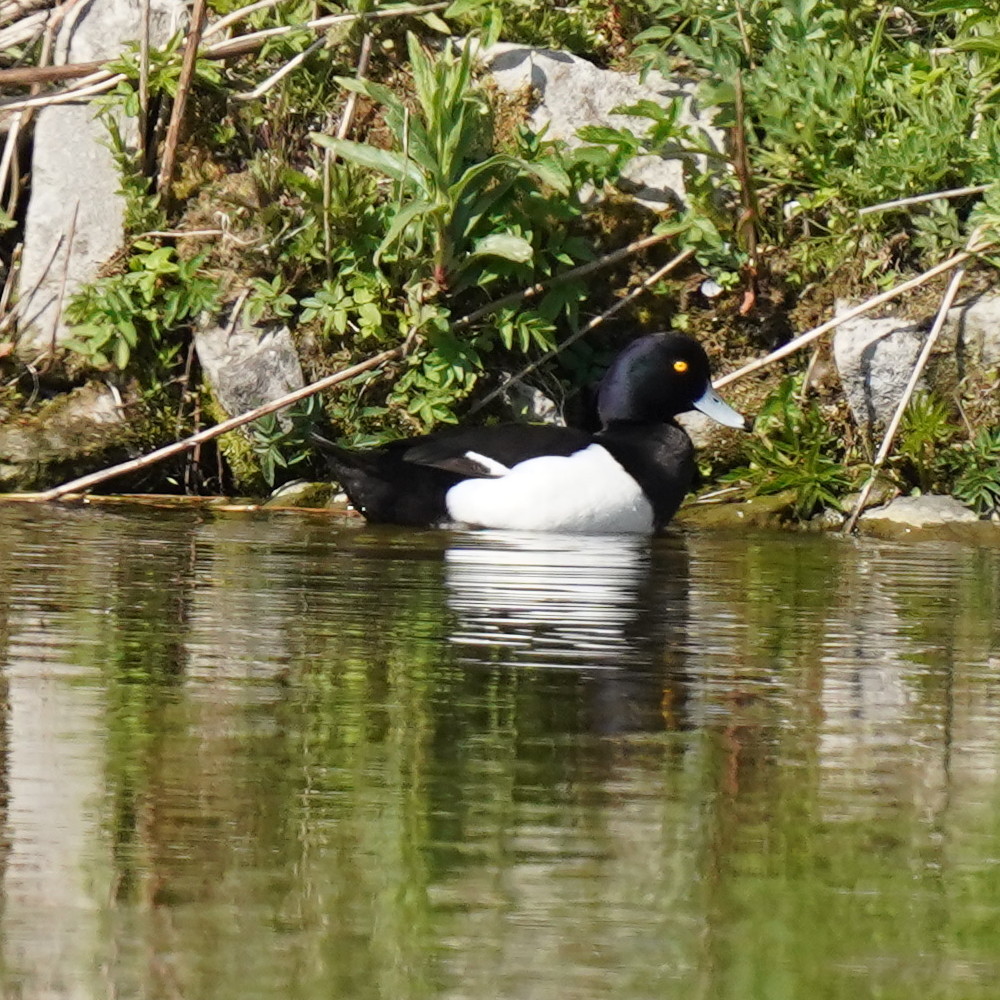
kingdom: Animalia
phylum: Chordata
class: Aves
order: Anseriformes
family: Anatidae
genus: Aythya
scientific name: Aythya fuligula
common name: Tufted duck
